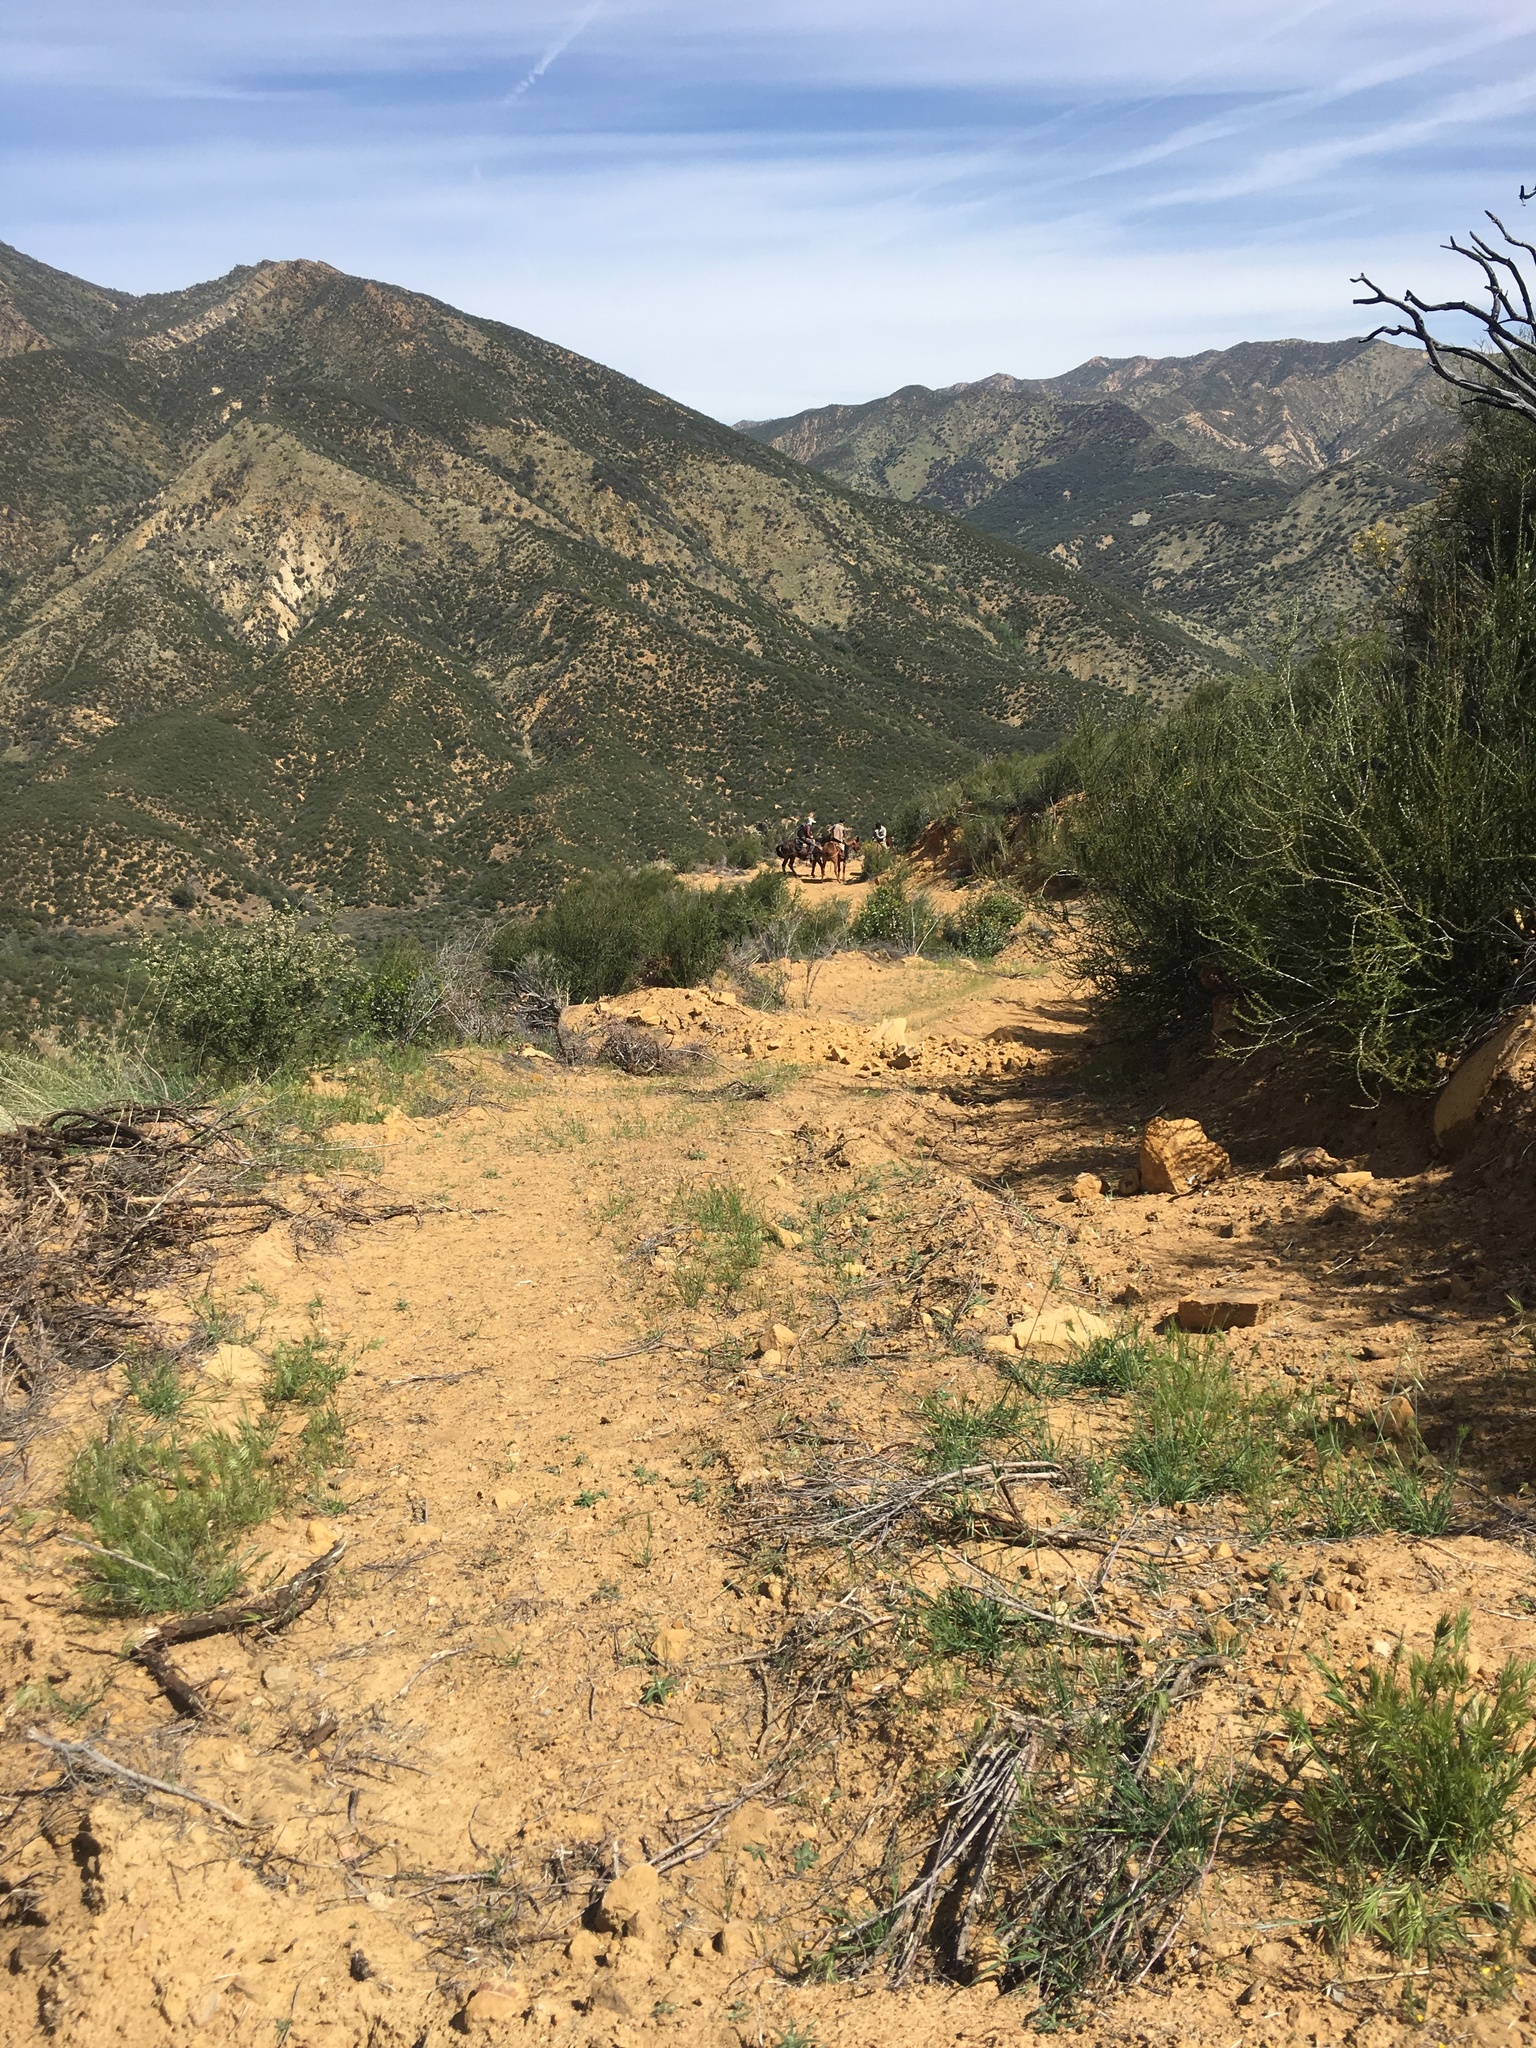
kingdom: Plantae
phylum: Tracheophyta
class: Magnoliopsida
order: Rosales
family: Rosaceae
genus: Adenostoma
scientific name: Adenostoma fasciculatum
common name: Chamise
